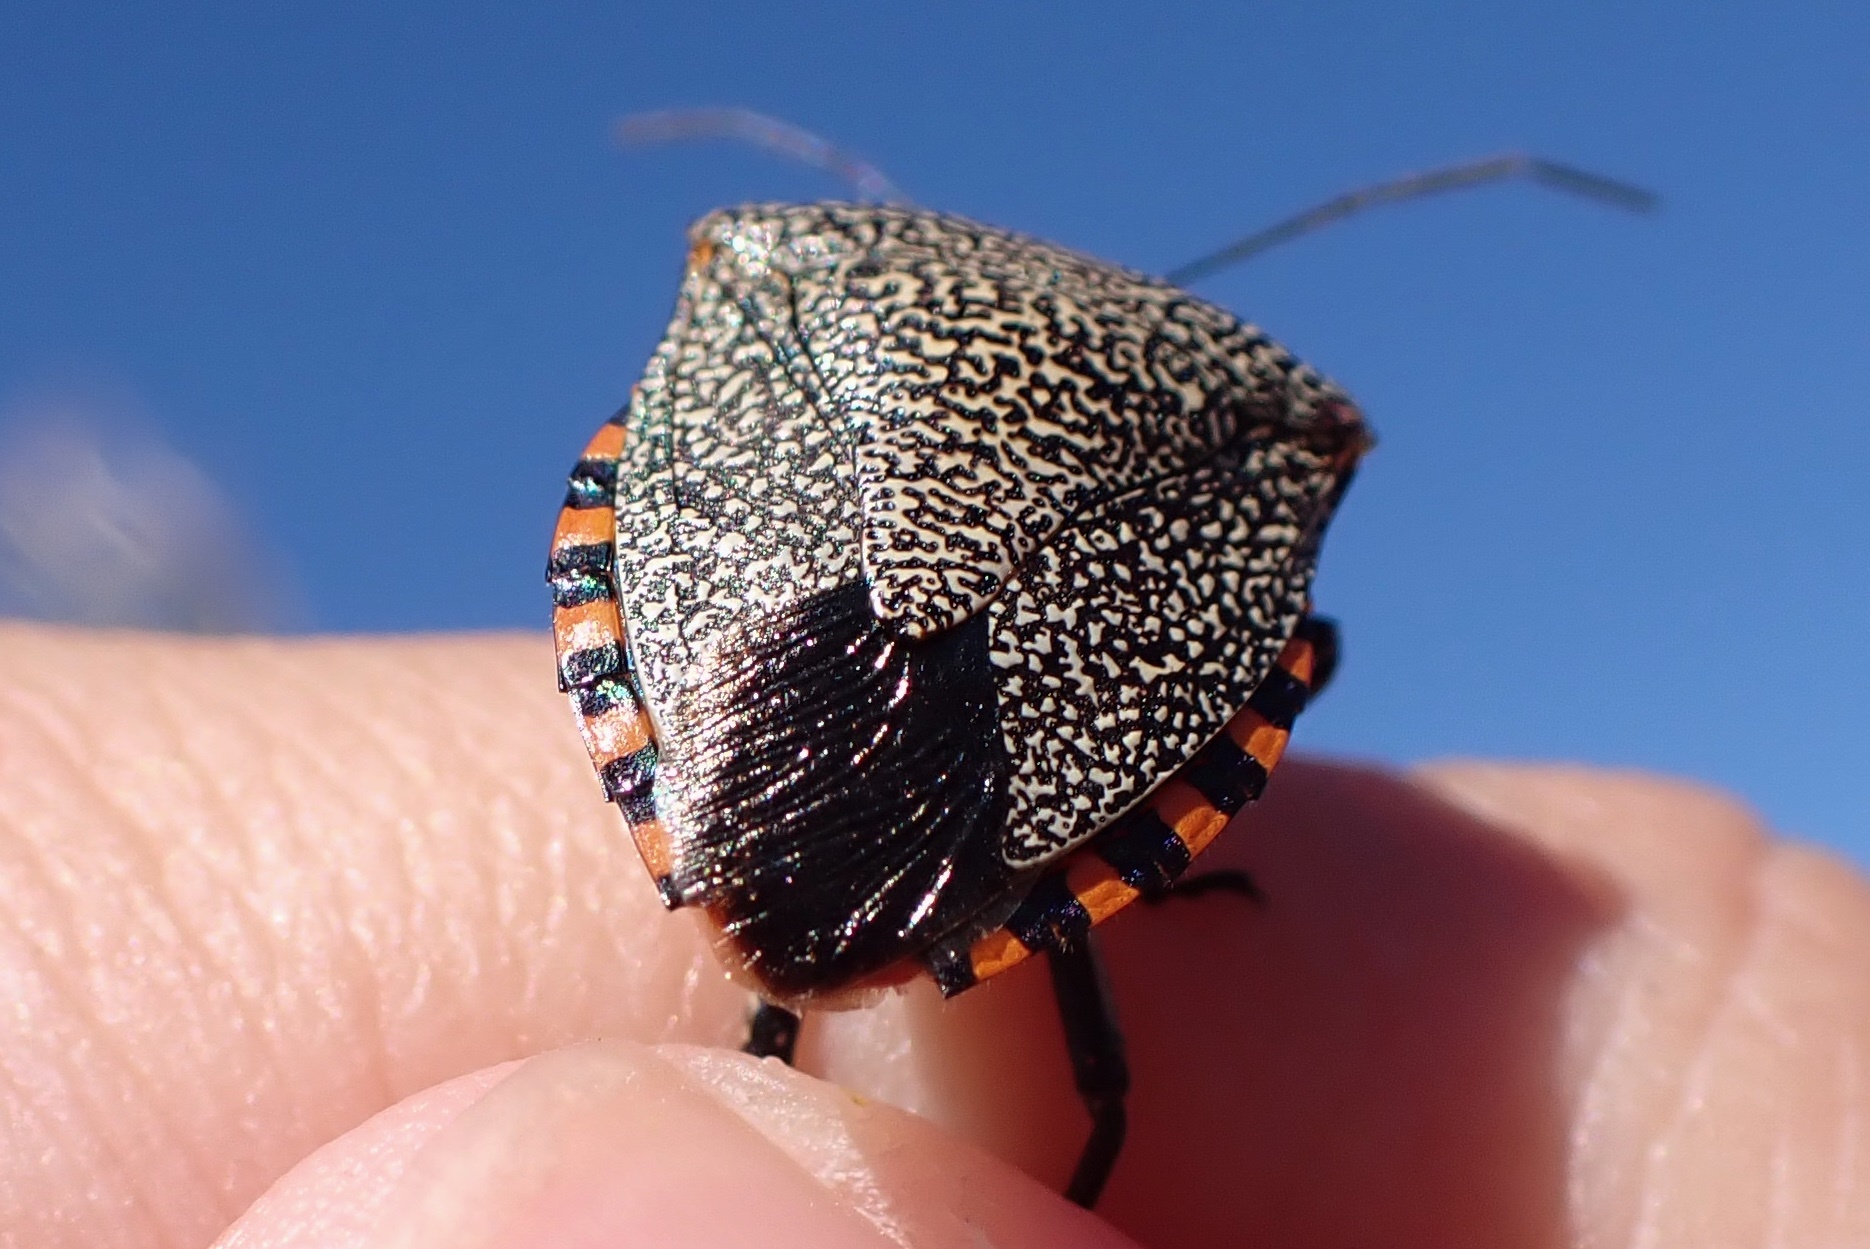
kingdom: Animalia
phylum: Arthropoda
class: Insecta
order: Hemiptera
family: Pentatomidae
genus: Pellaea
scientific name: Pellaea stictica
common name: Stink bug
